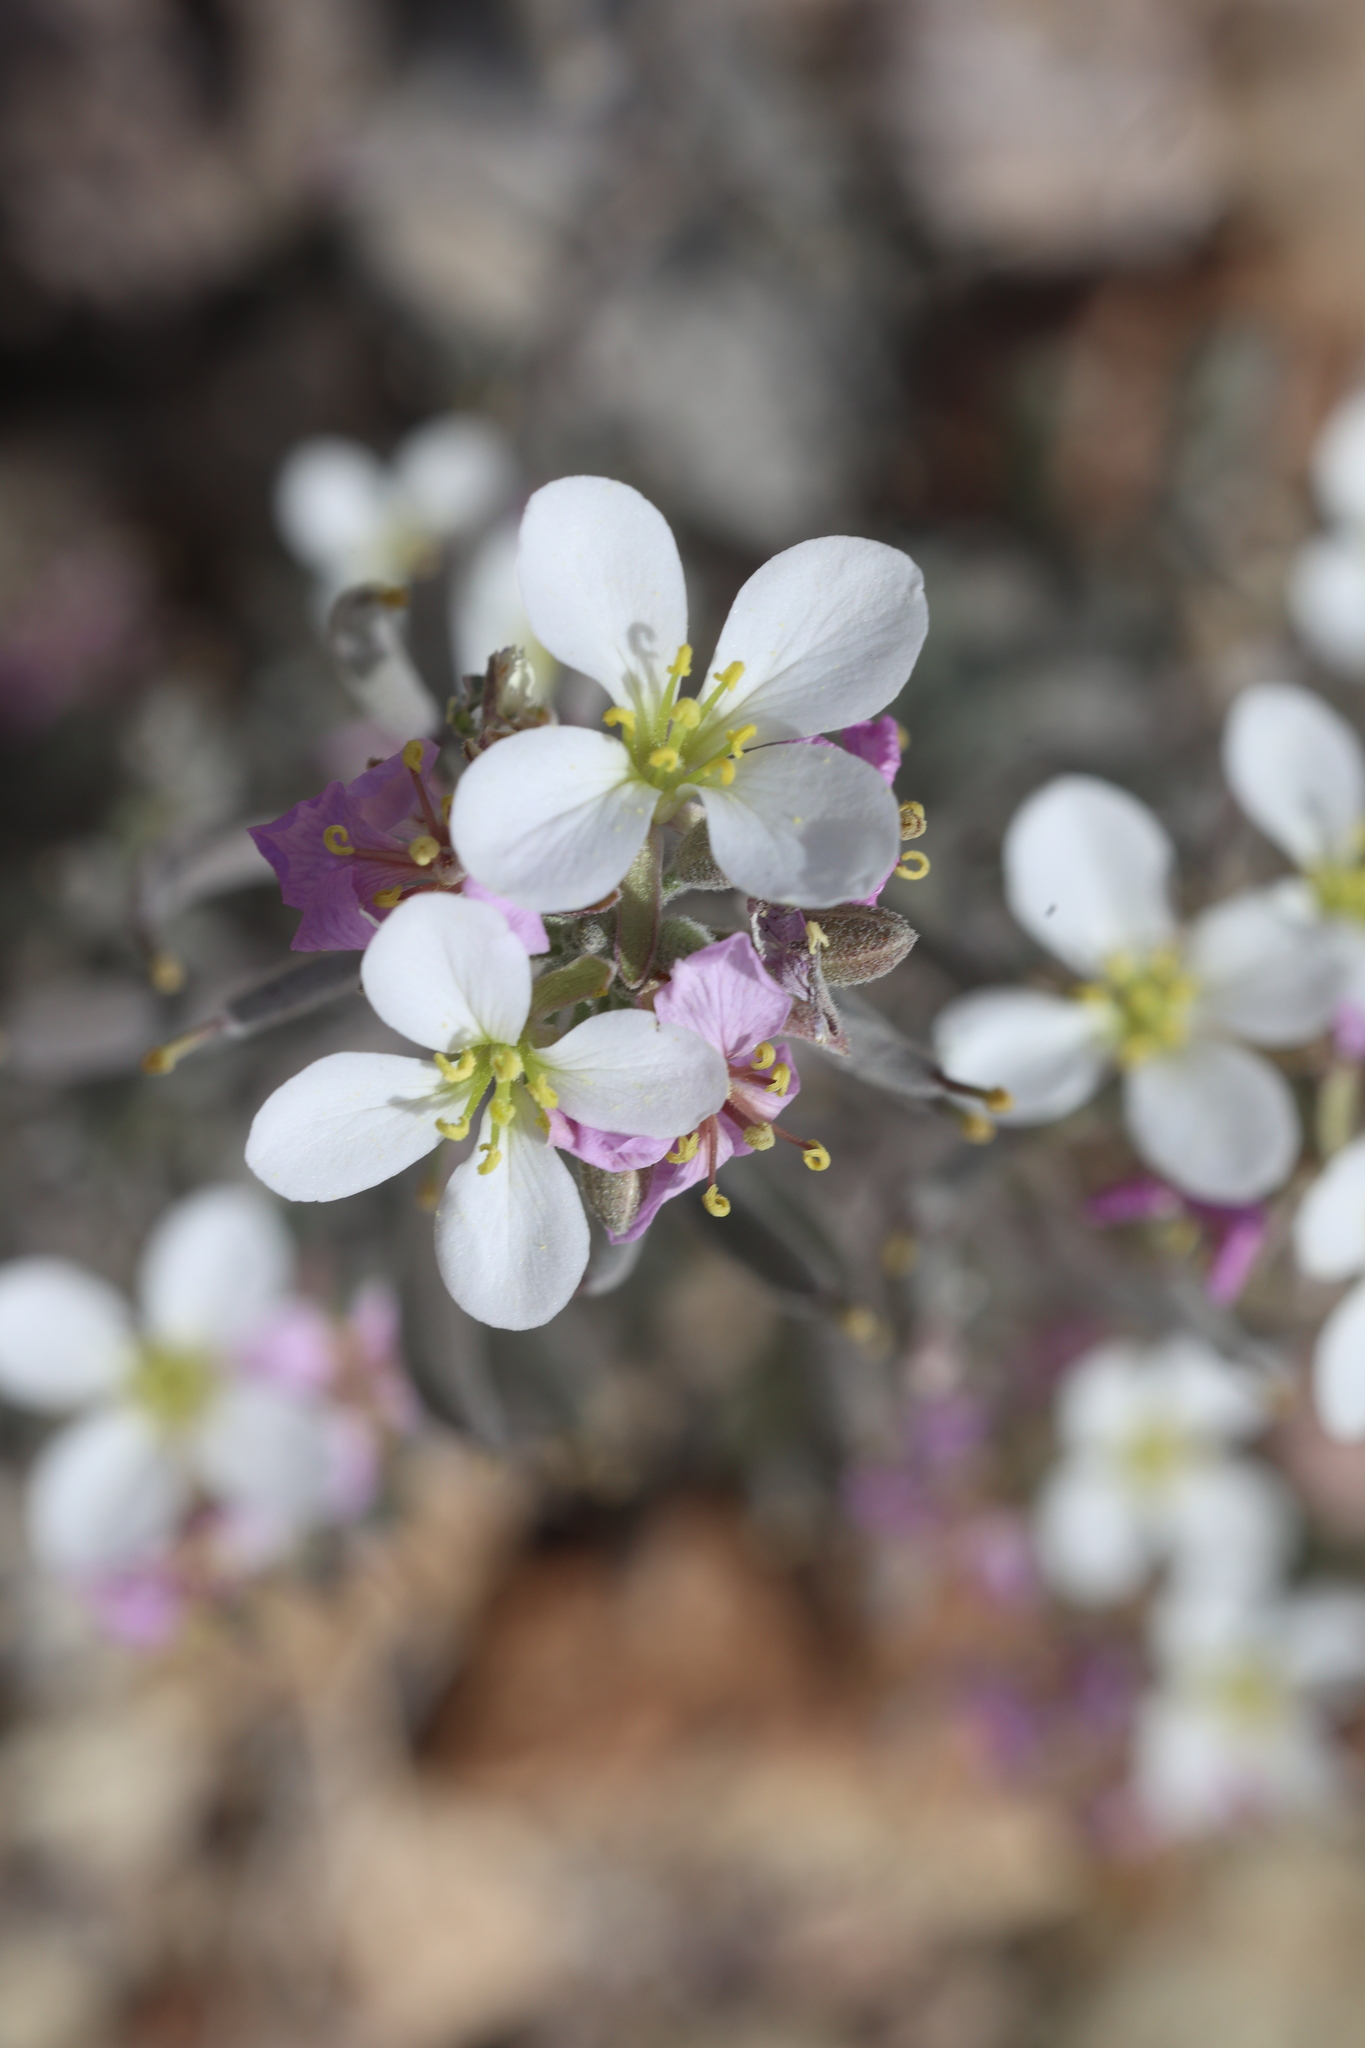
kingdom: Plantae
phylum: Tracheophyta
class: Magnoliopsida
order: Brassicales
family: Brassicaceae
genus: Nerisyrenia
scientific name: Nerisyrenia camporum
